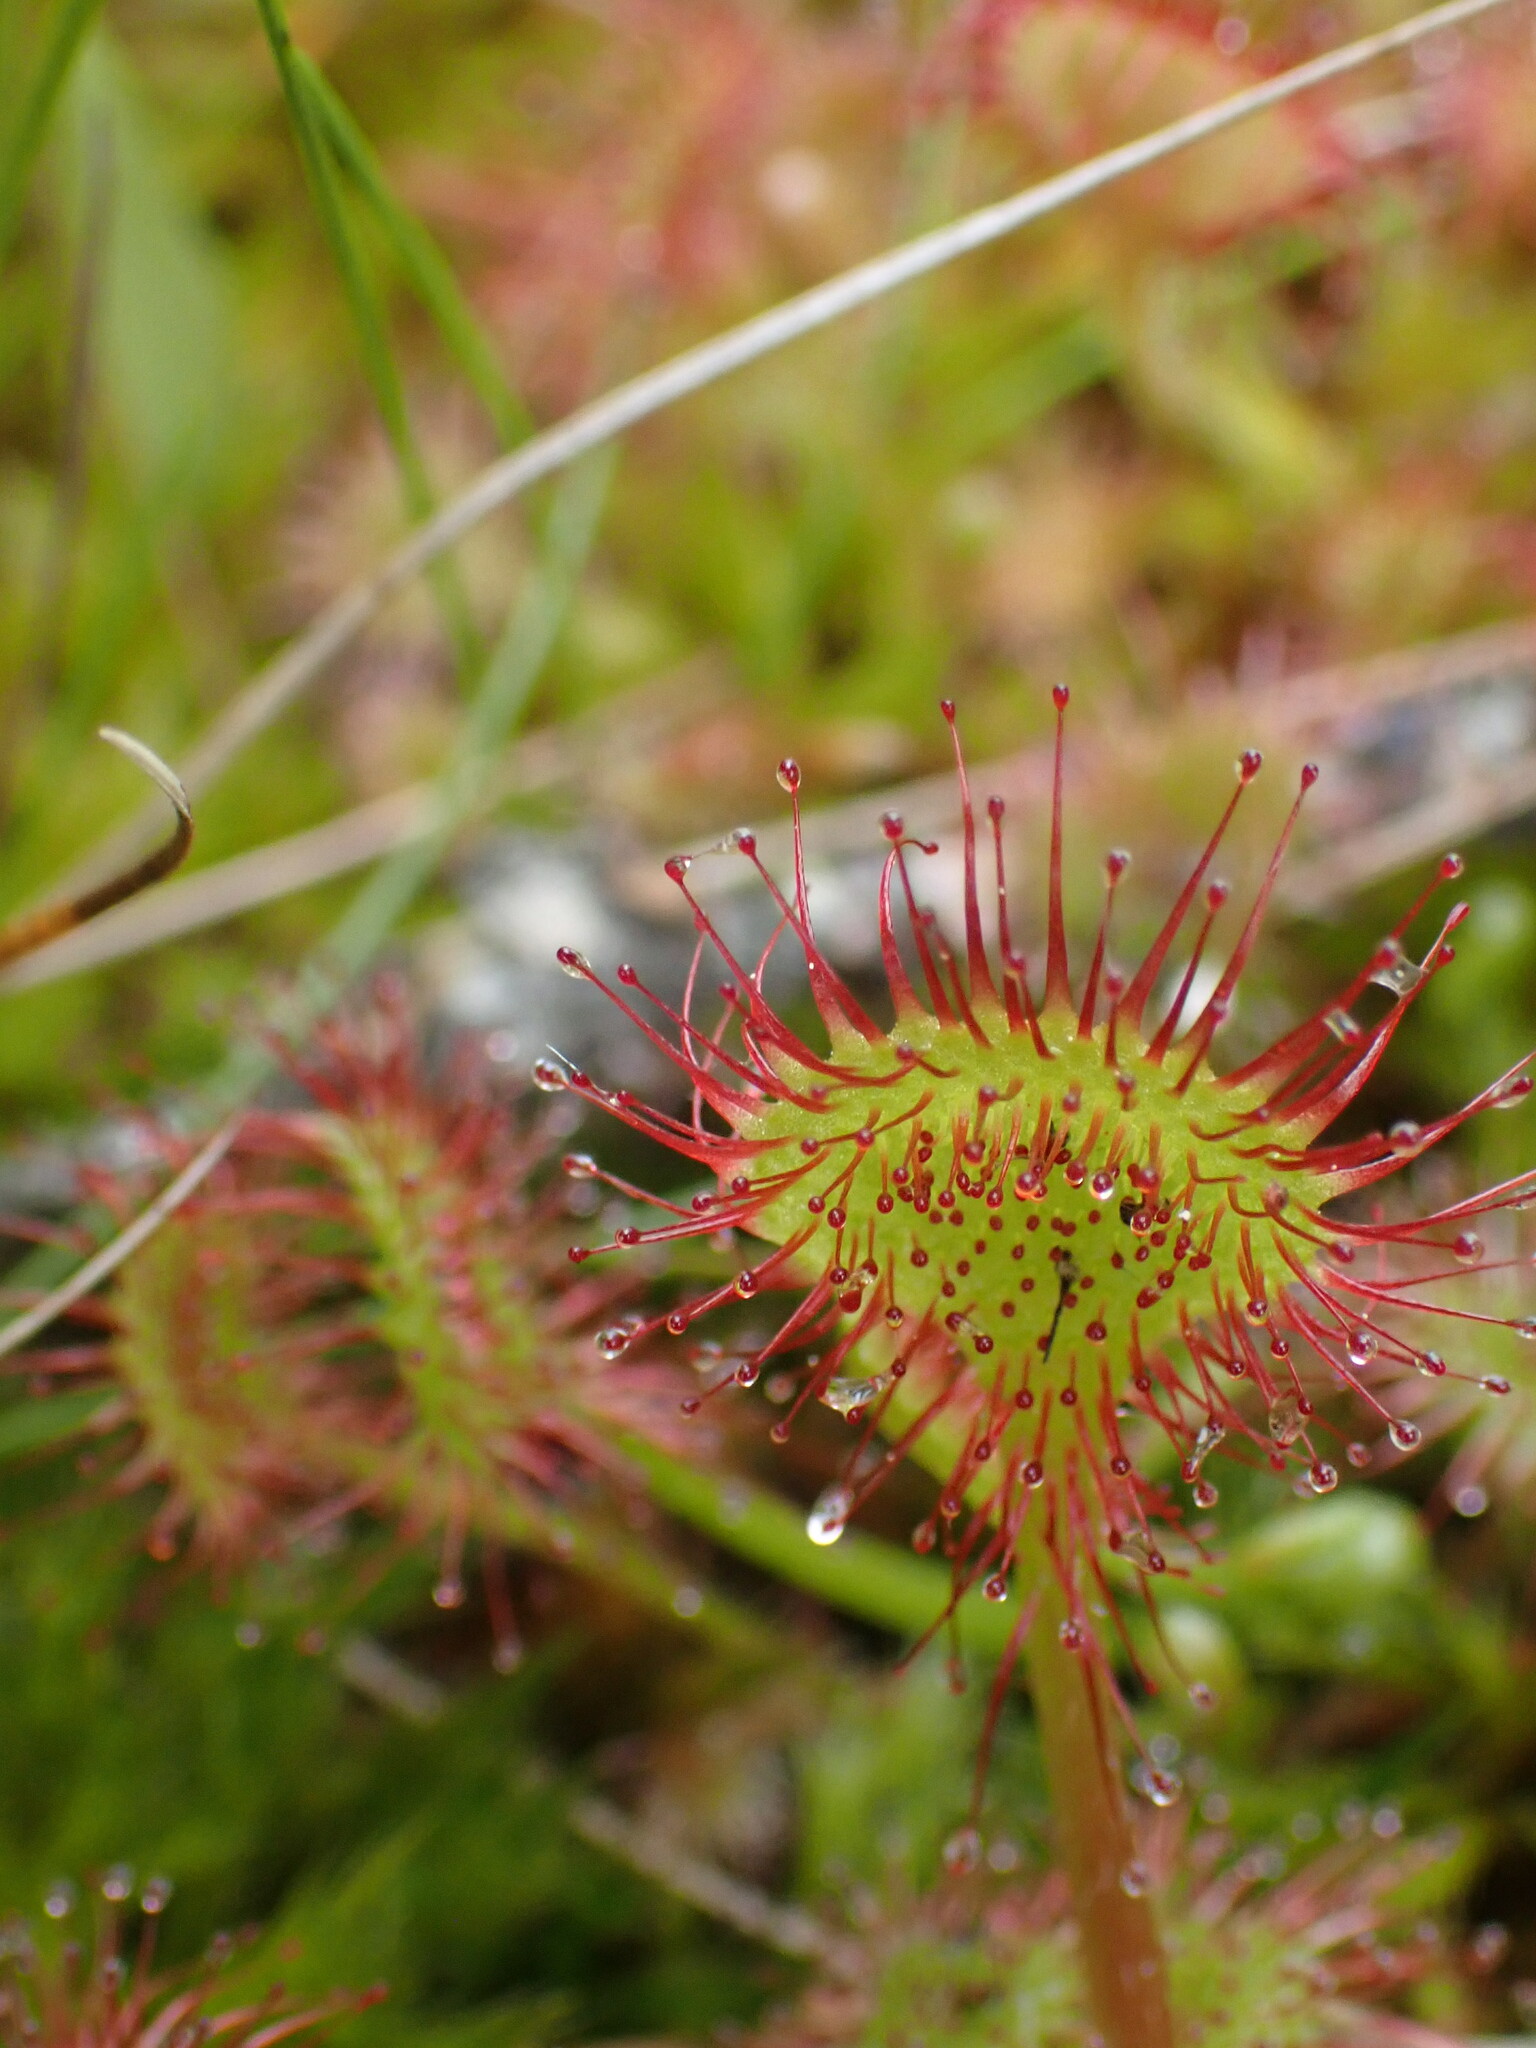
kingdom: Plantae
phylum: Tracheophyta
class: Magnoliopsida
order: Caryophyllales
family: Droseraceae
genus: Drosera
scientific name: Drosera rotundifolia
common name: Round-leaved sundew
